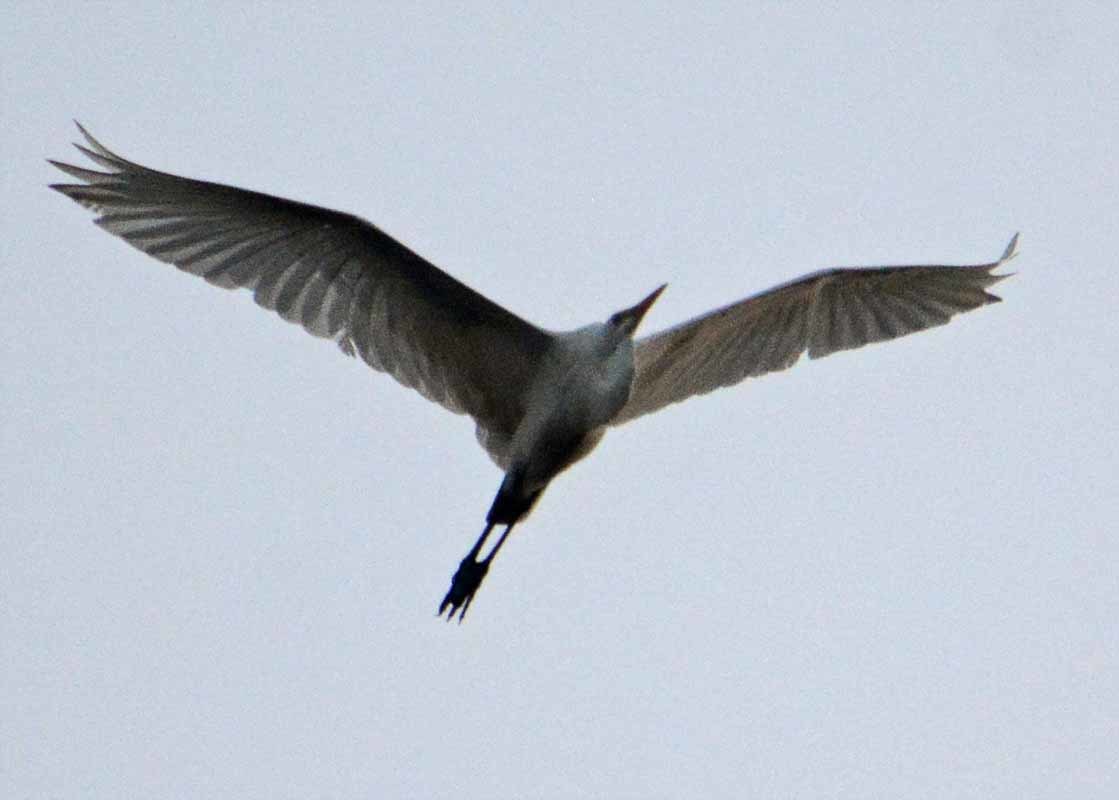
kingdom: Animalia
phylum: Chordata
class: Aves
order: Pelecaniformes
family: Ardeidae
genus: Ardea
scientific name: Ardea alba
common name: Great egret
